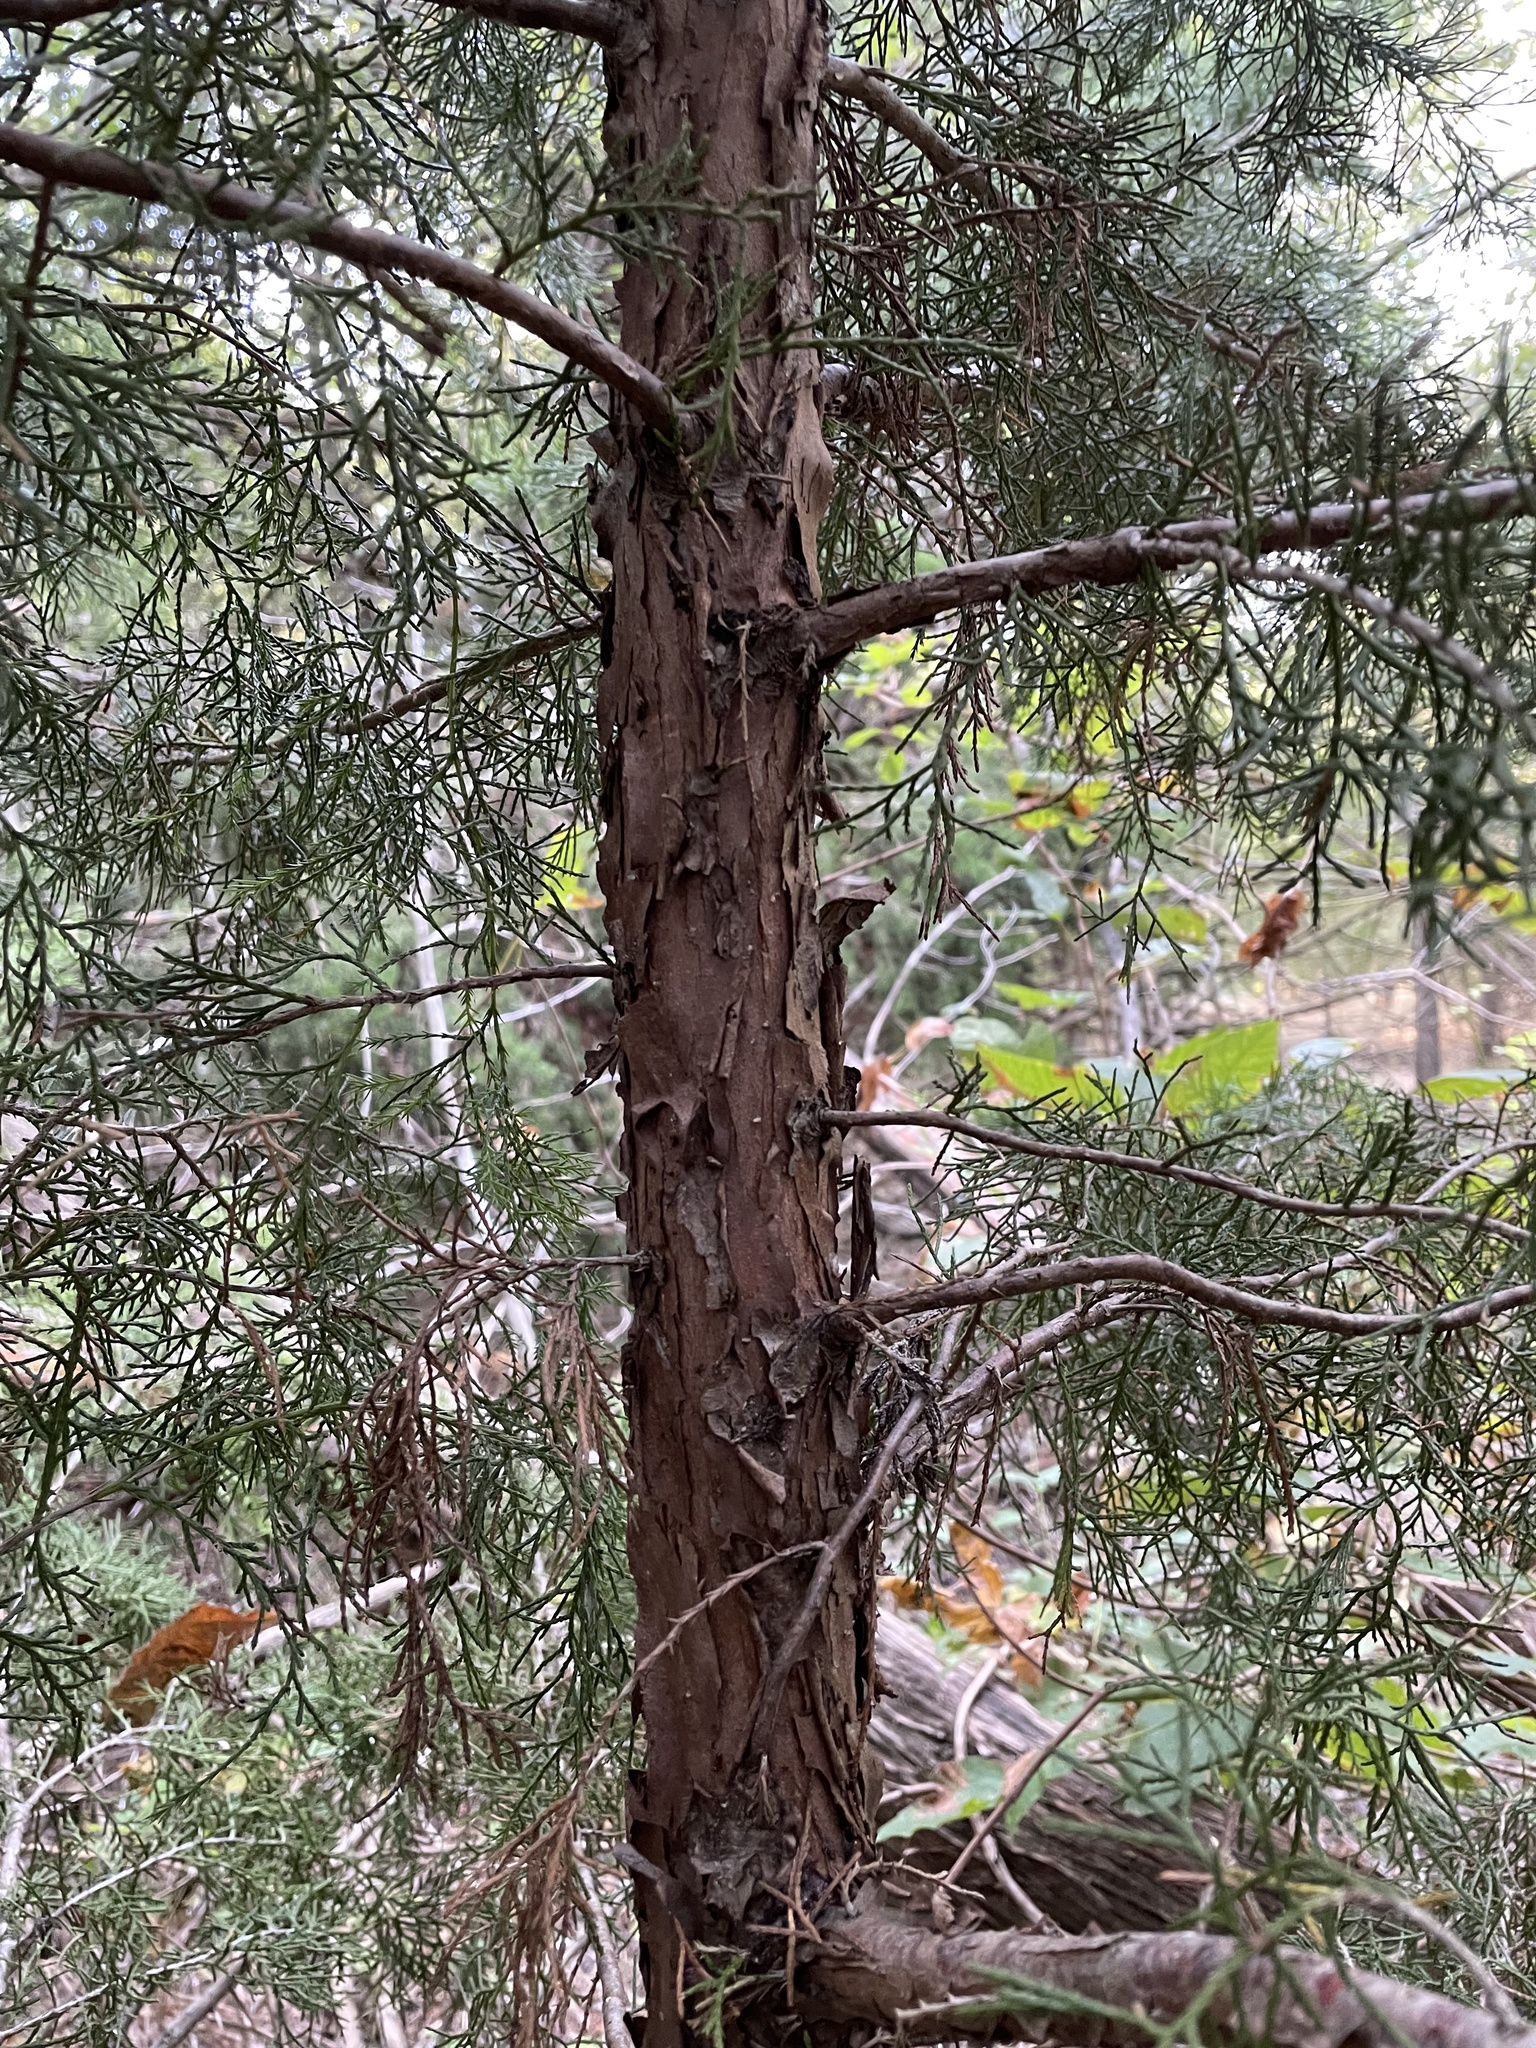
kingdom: Plantae
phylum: Tracheophyta
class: Pinopsida
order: Pinales
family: Cupressaceae
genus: Juniperus
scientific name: Juniperus virginiana
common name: Red juniper
